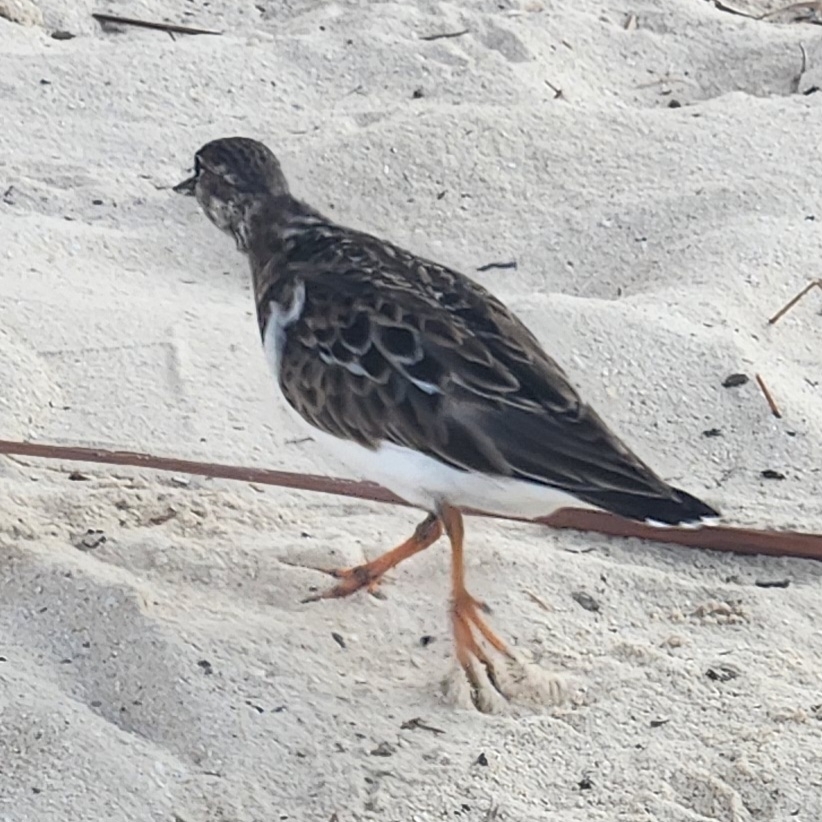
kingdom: Animalia
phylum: Chordata
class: Aves
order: Charadriiformes
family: Scolopacidae
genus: Arenaria
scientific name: Arenaria interpres
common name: Ruddy turnstone
